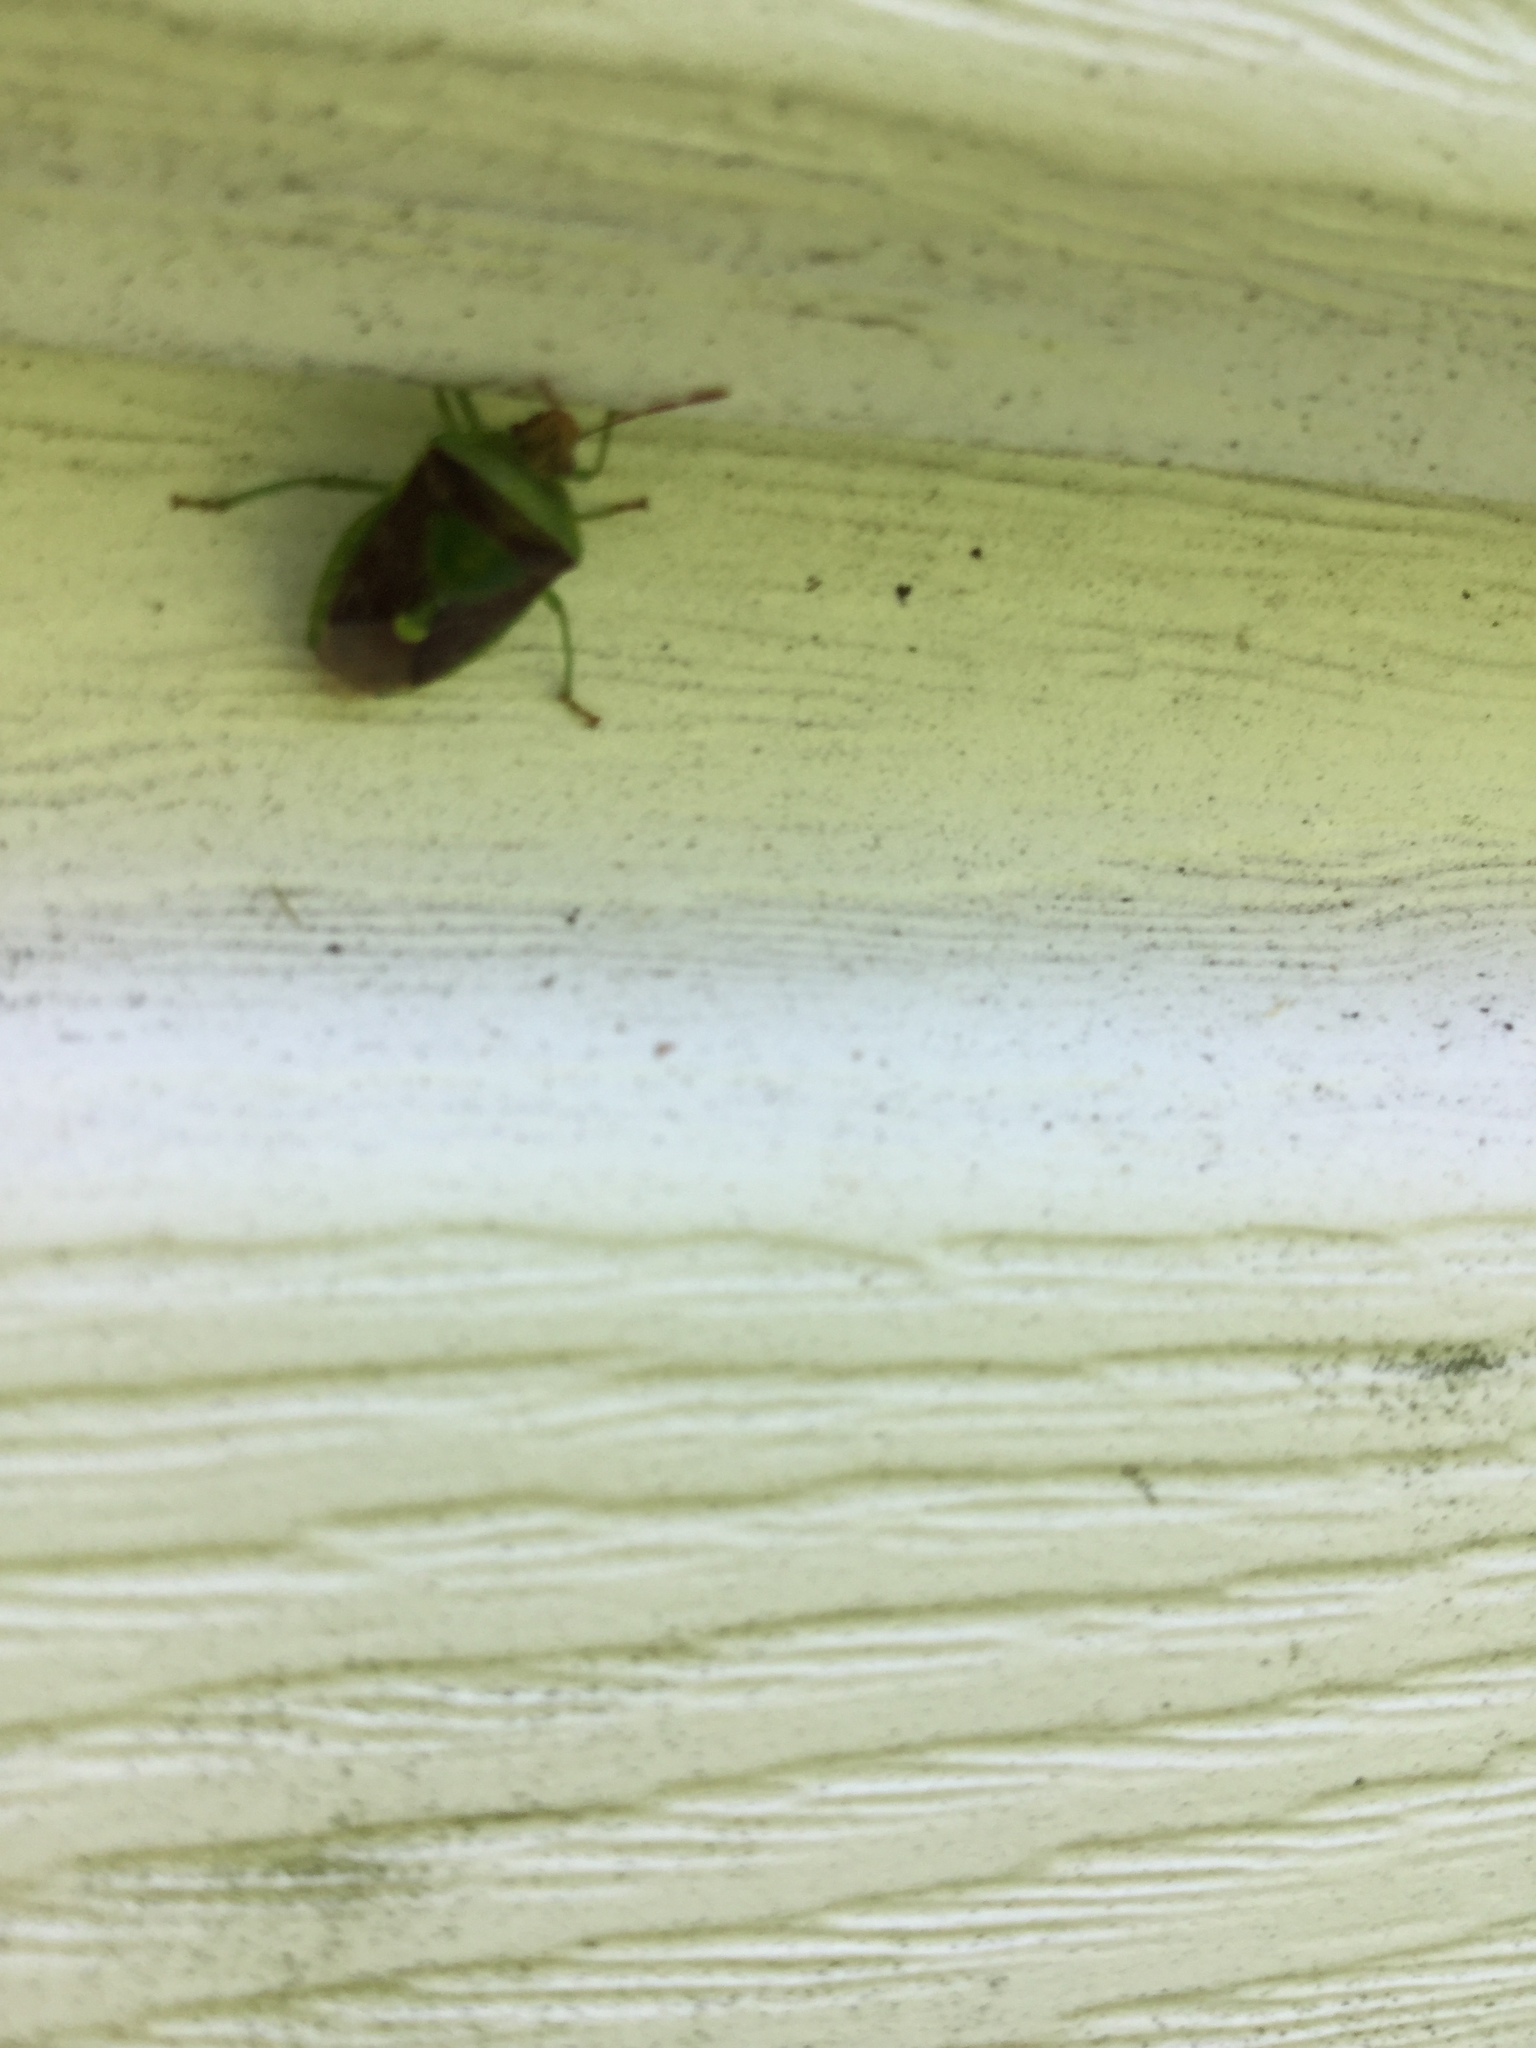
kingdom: Animalia
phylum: Arthropoda
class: Insecta
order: Hemiptera
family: Pentatomidae
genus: Banasa
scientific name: Banasa dimidiata
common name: Green burgundy stink bug
